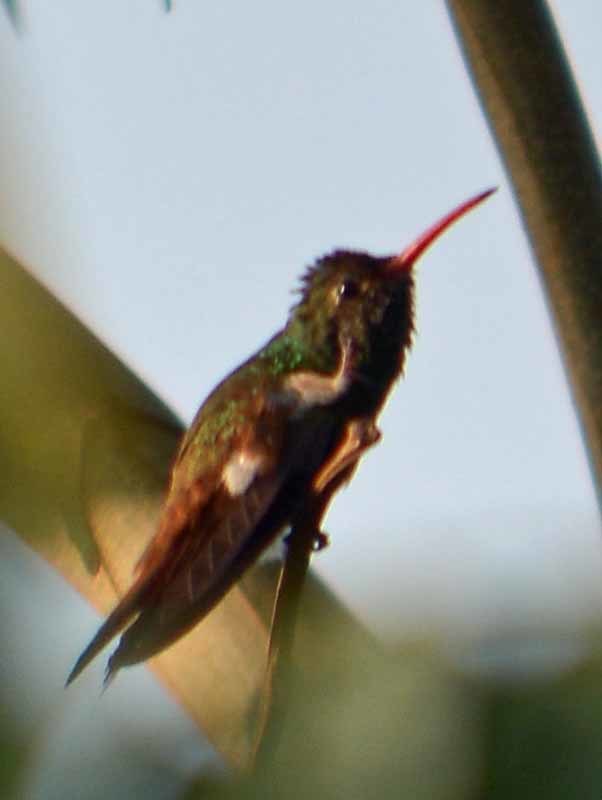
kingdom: Animalia
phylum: Chordata
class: Aves
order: Apodiformes
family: Trochilidae
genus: Amazilia
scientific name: Amazilia yucatanensis
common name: Buff-bellied hummingbird
